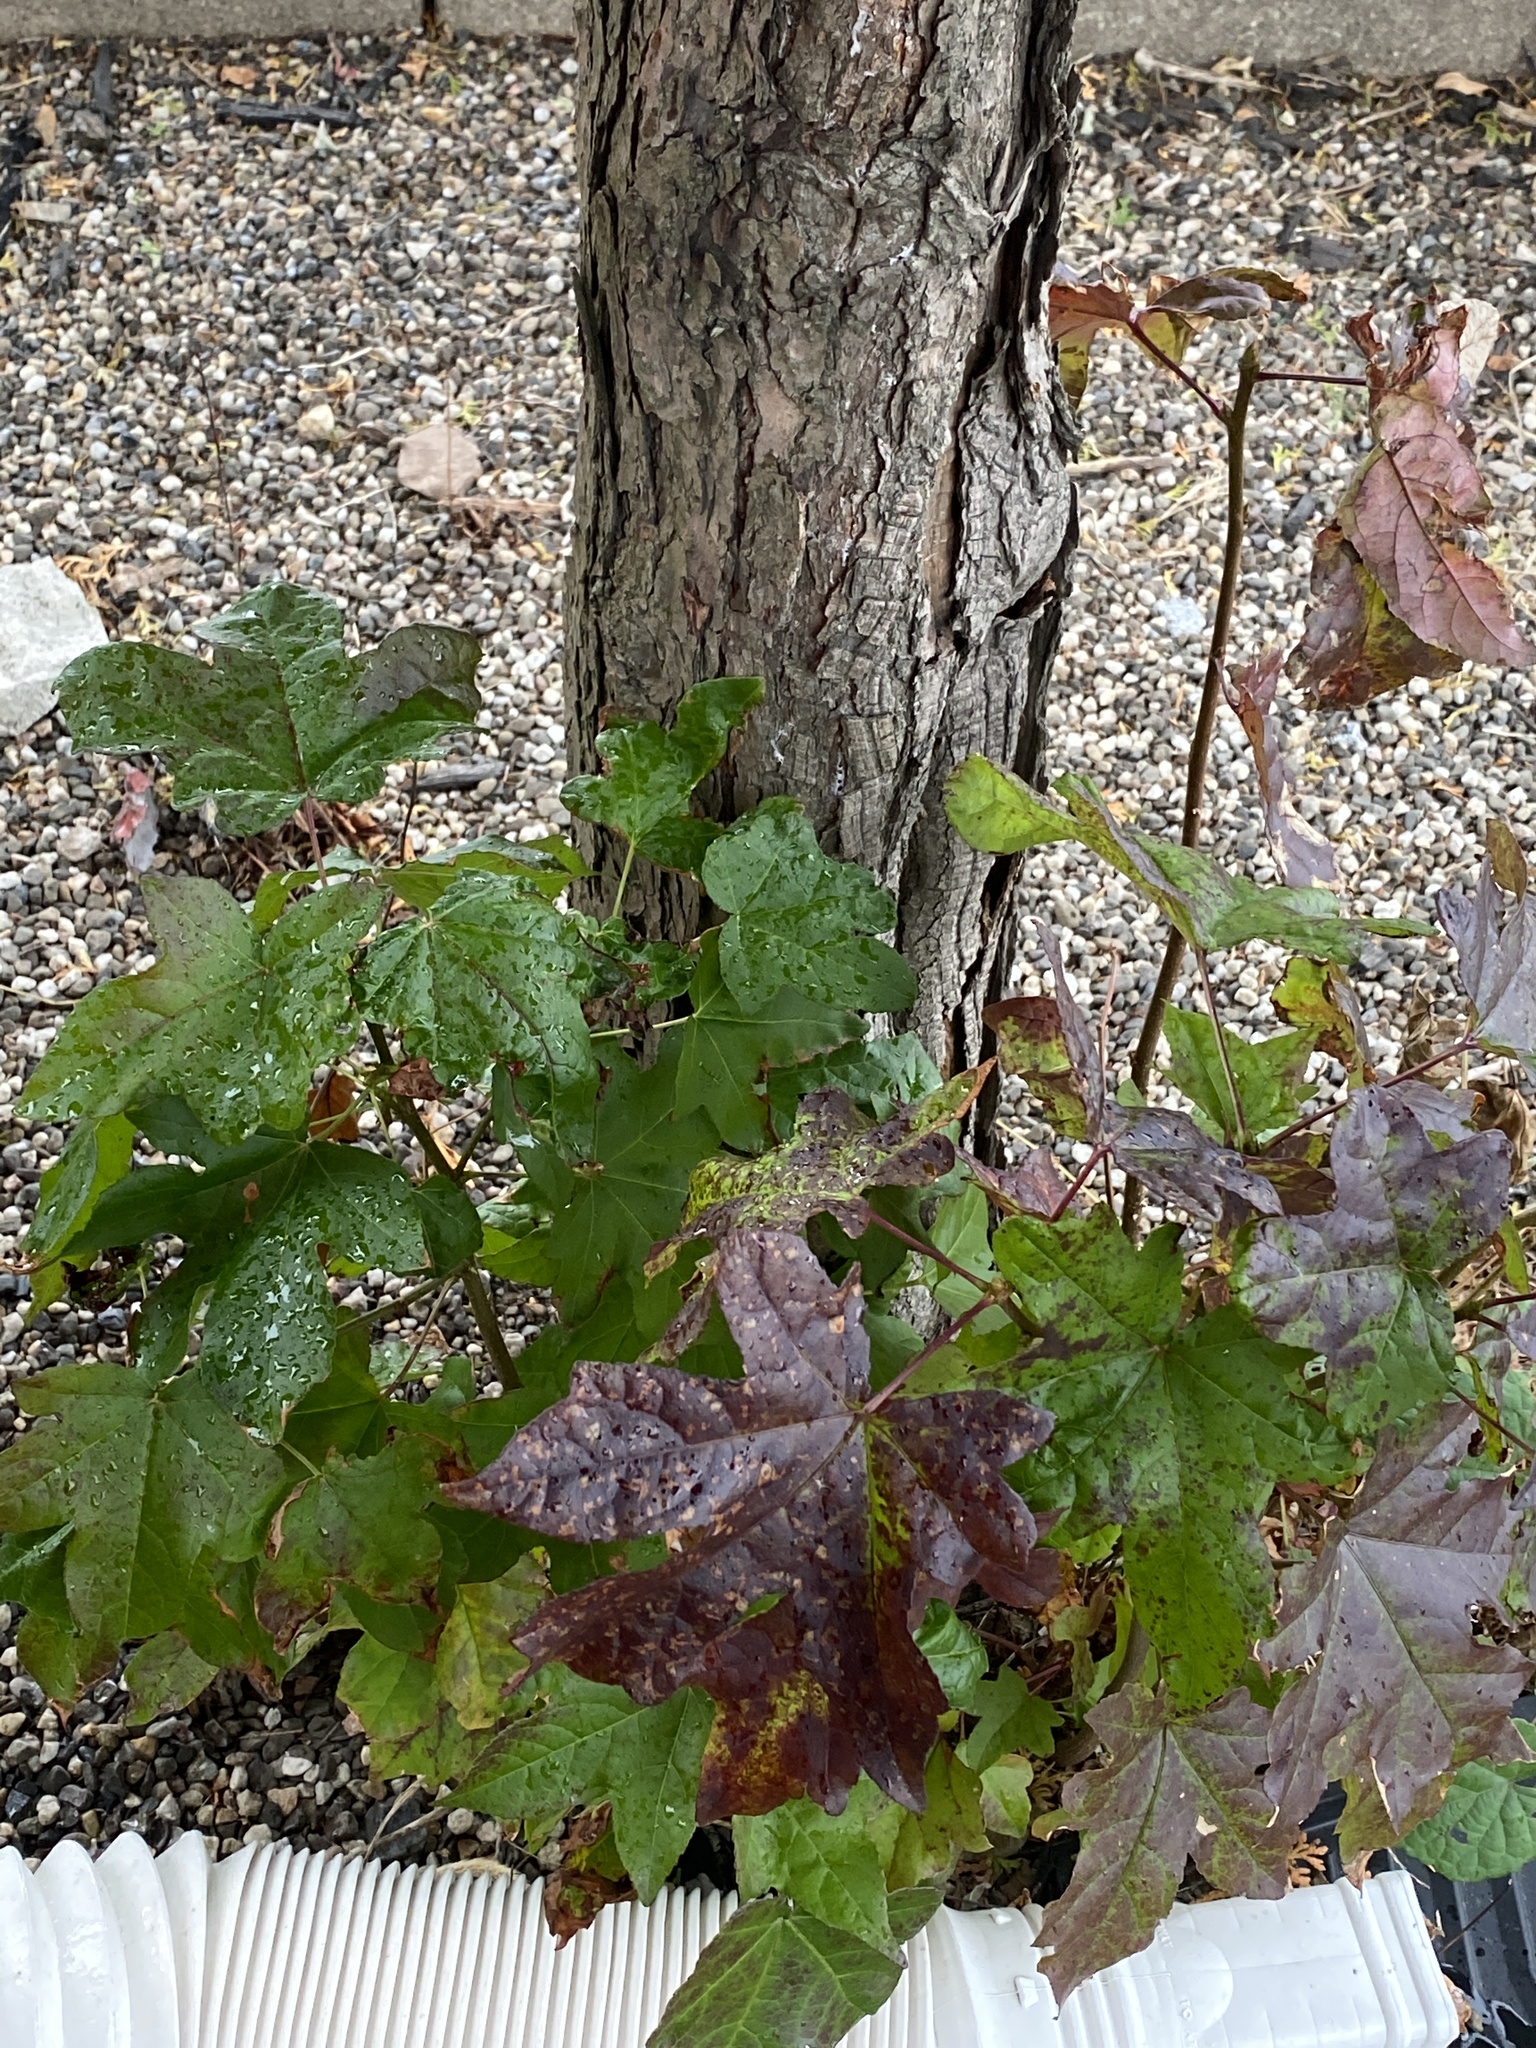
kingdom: Plantae
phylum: Tracheophyta
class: Magnoliopsida
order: Saxifragales
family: Altingiaceae
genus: Liquidambar
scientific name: Liquidambar styraciflua
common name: Sweet gum
